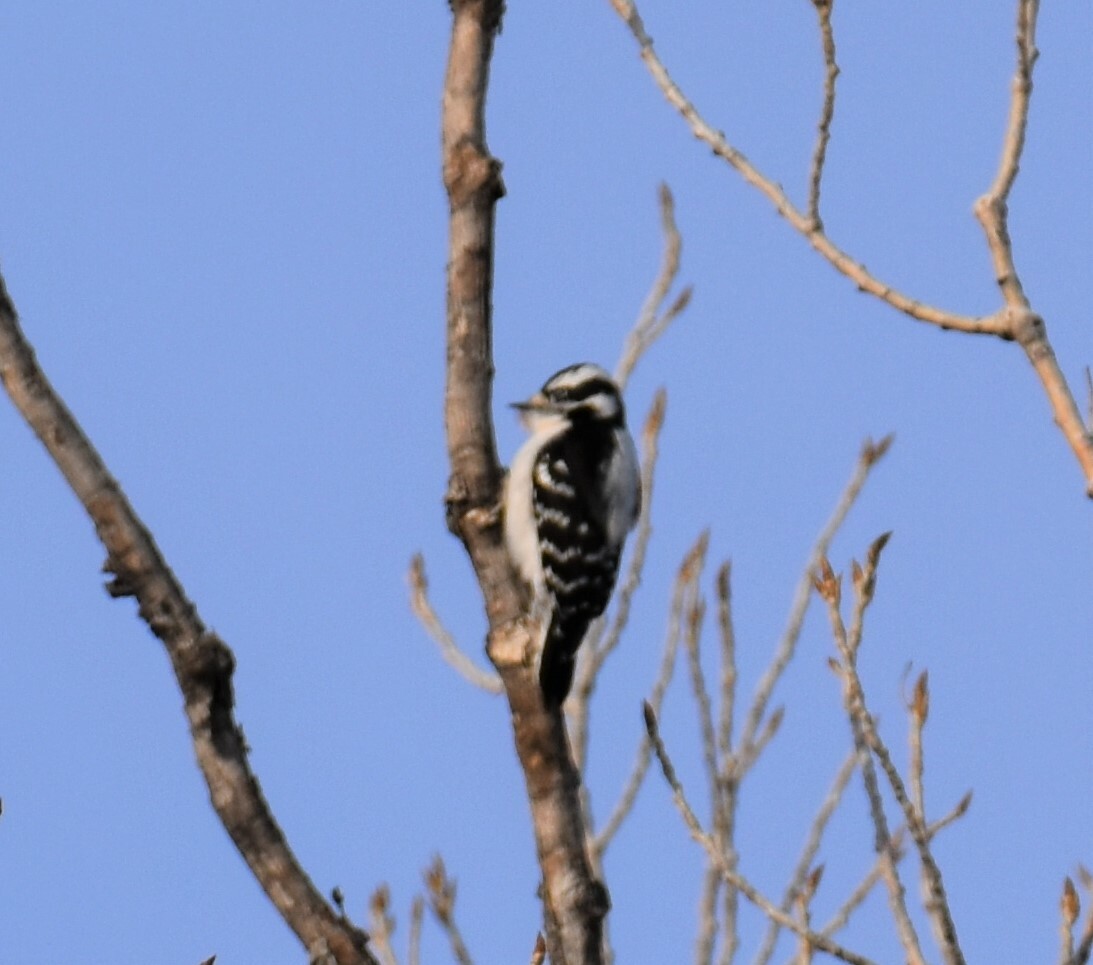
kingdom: Animalia
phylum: Chordata
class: Aves
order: Piciformes
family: Picidae
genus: Dryobates
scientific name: Dryobates pubescens
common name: Downy woodpecker
